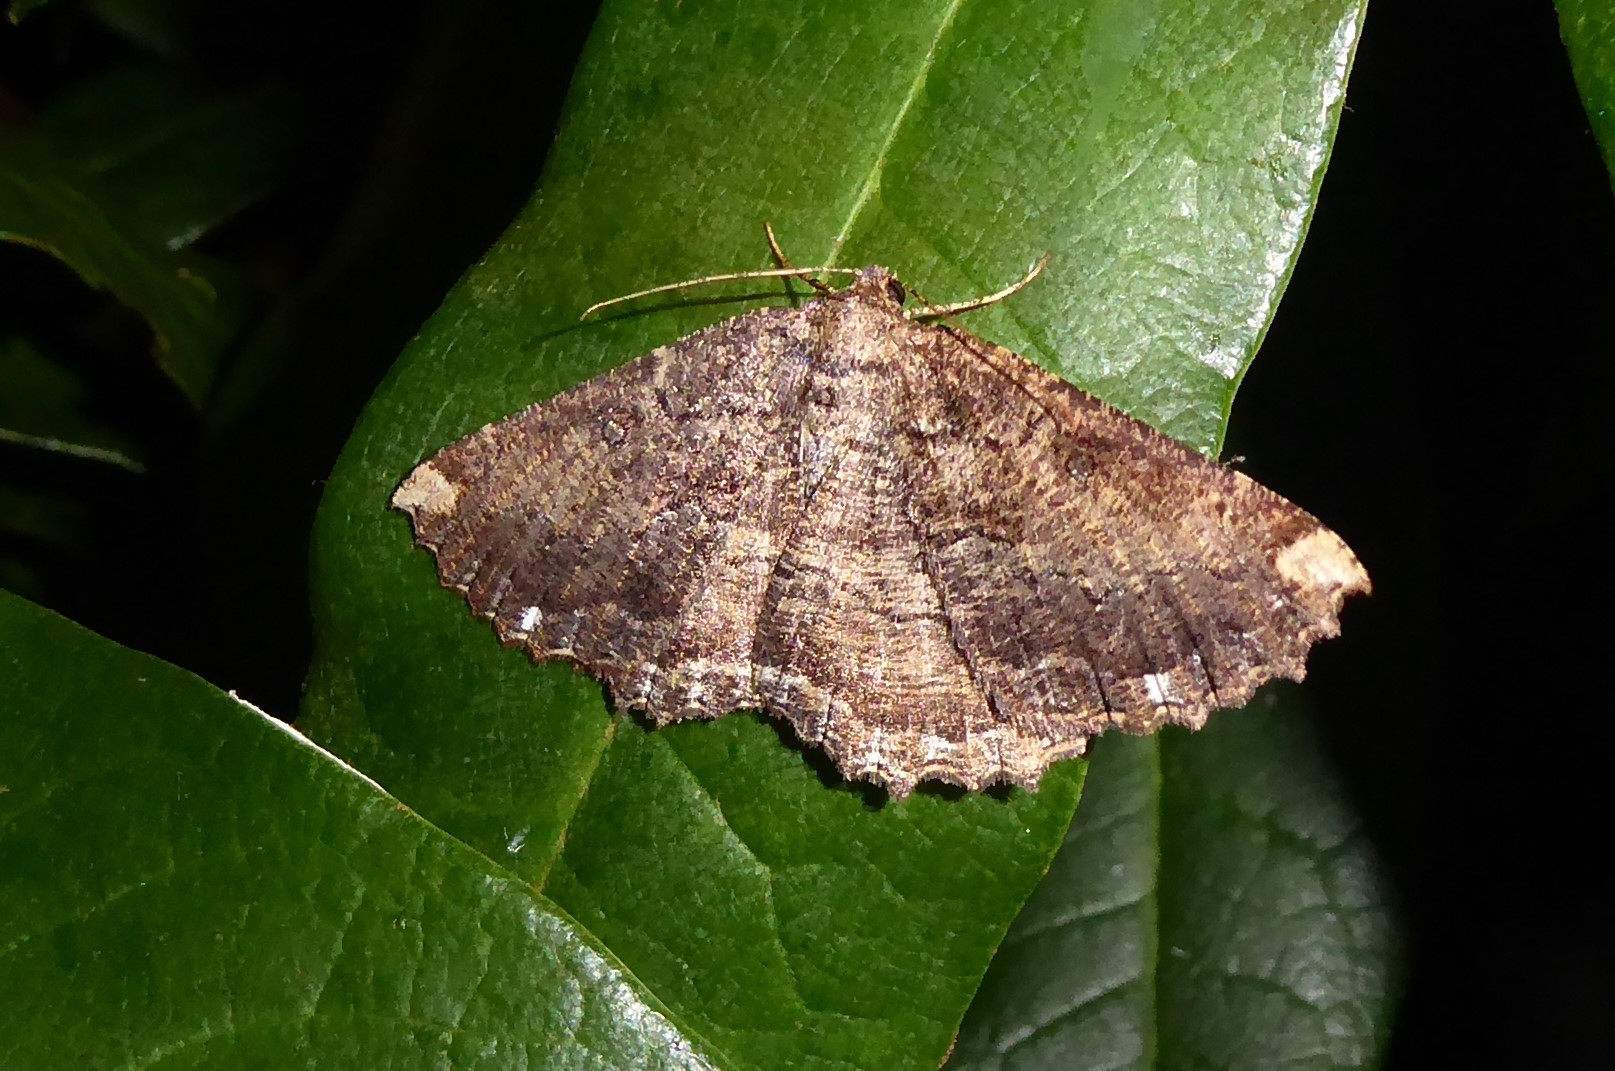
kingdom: Animalia
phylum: Arthropoda
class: Insecta
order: Lepidoptera
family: Geometridae
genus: Gellonia
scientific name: Gellonia dejectaria
